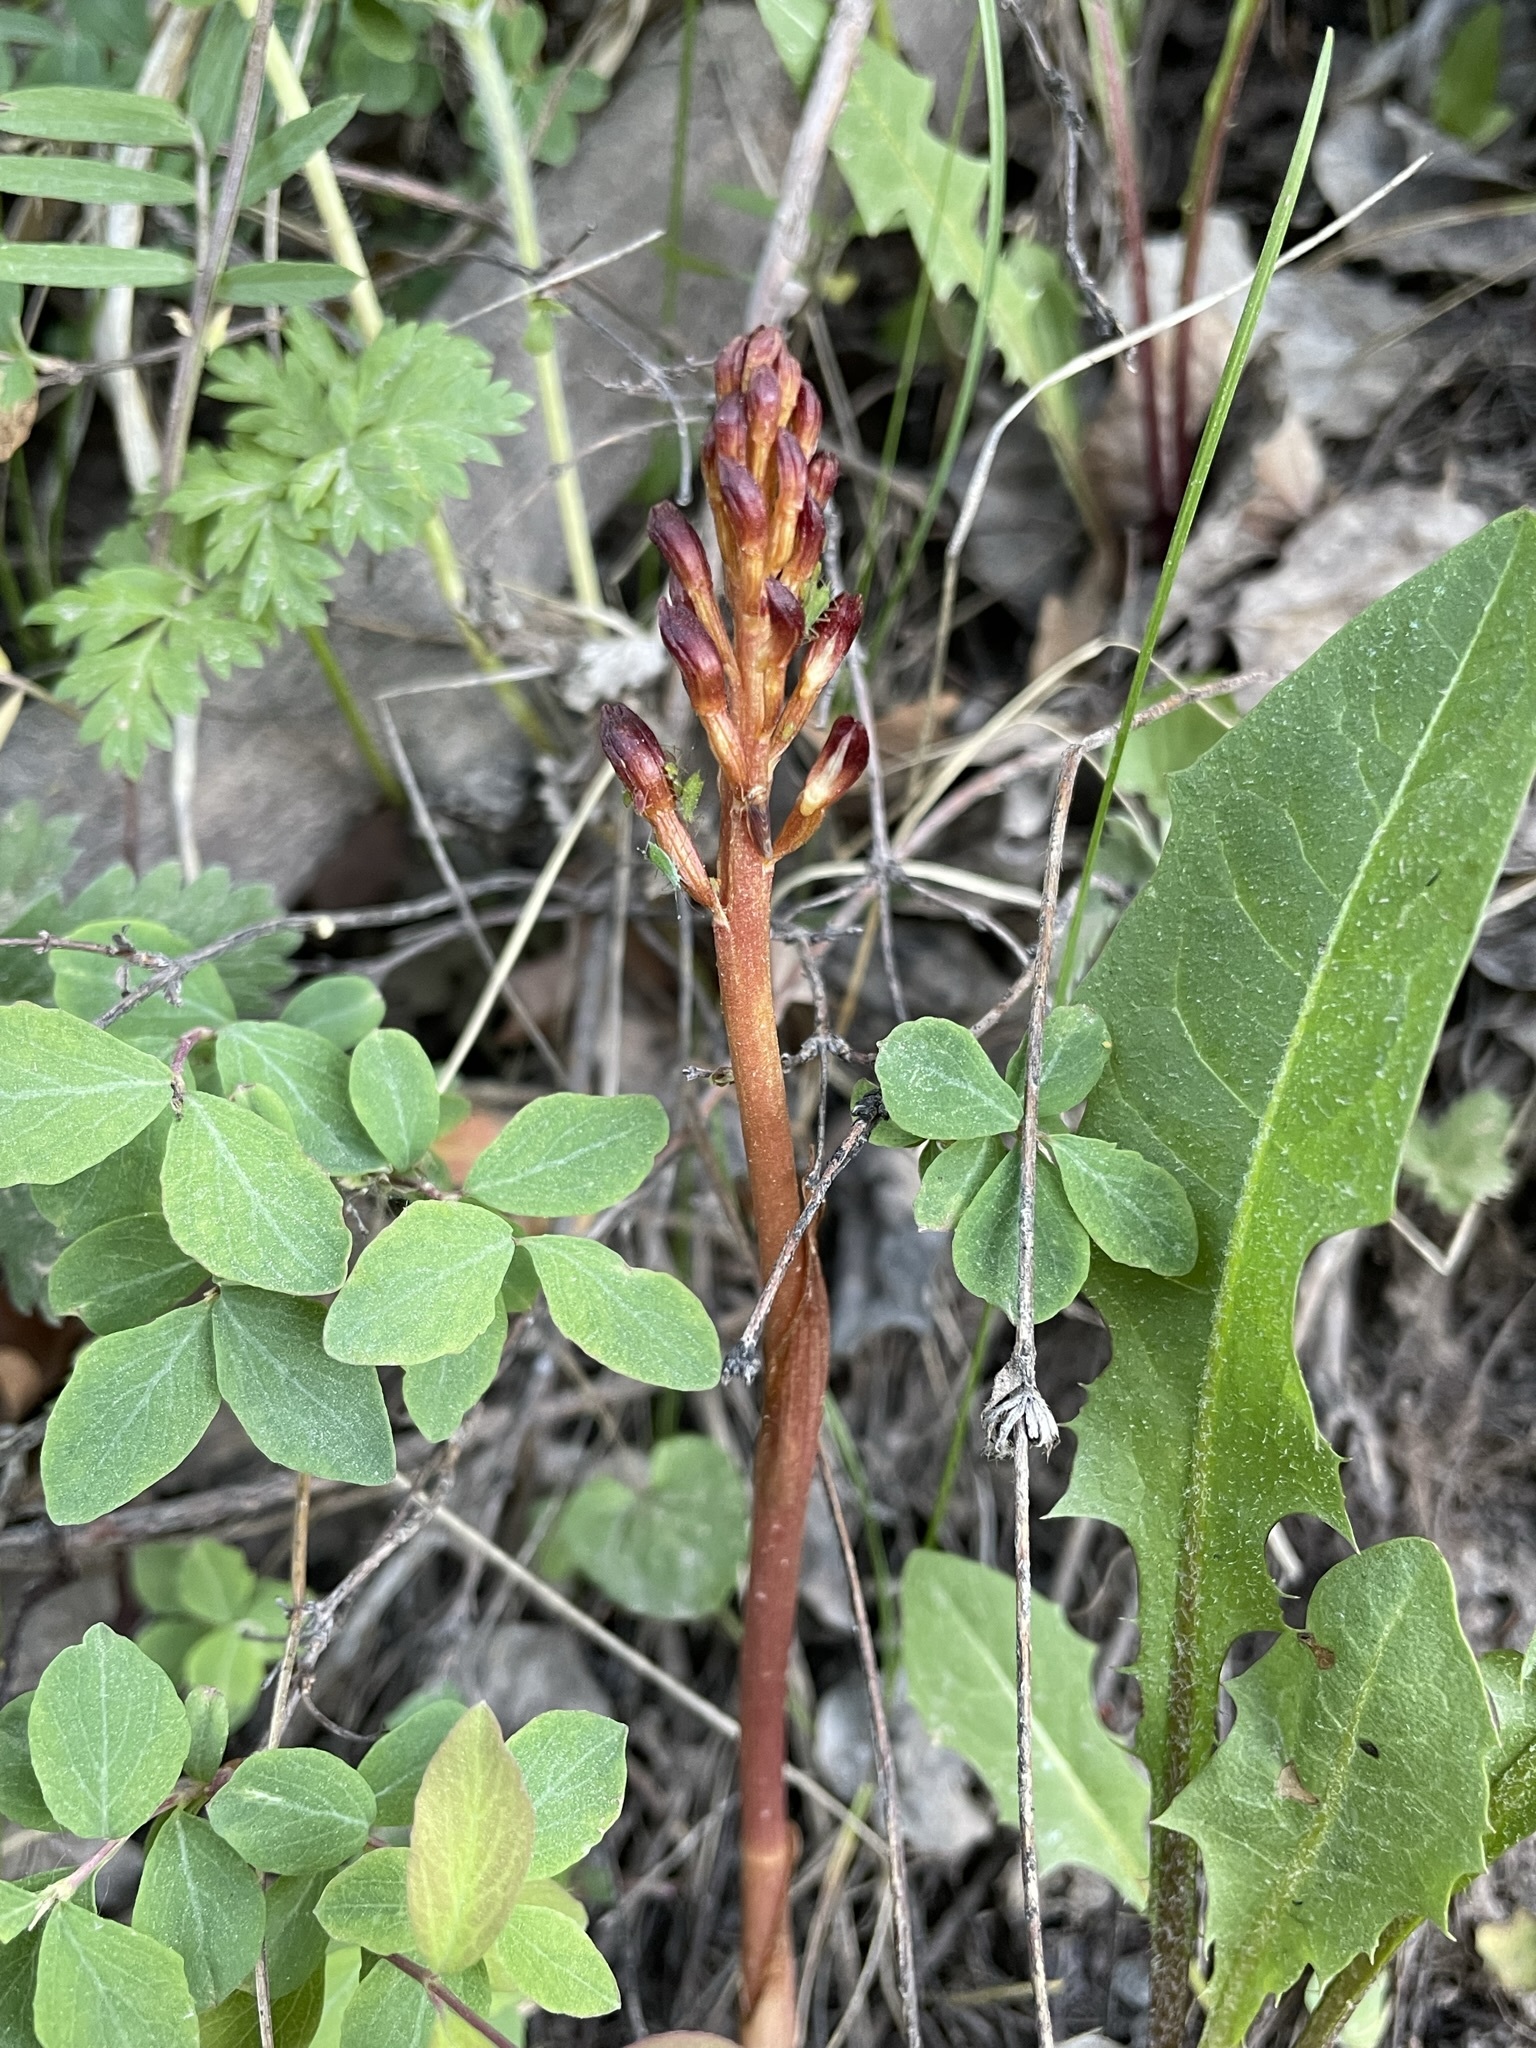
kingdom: Plantae
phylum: Tracheophyta
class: Liliopsida
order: Asparagales
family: Orchidaceae
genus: Corallorhiza
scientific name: Corallorhiza maculata
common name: Spotted coralroot
